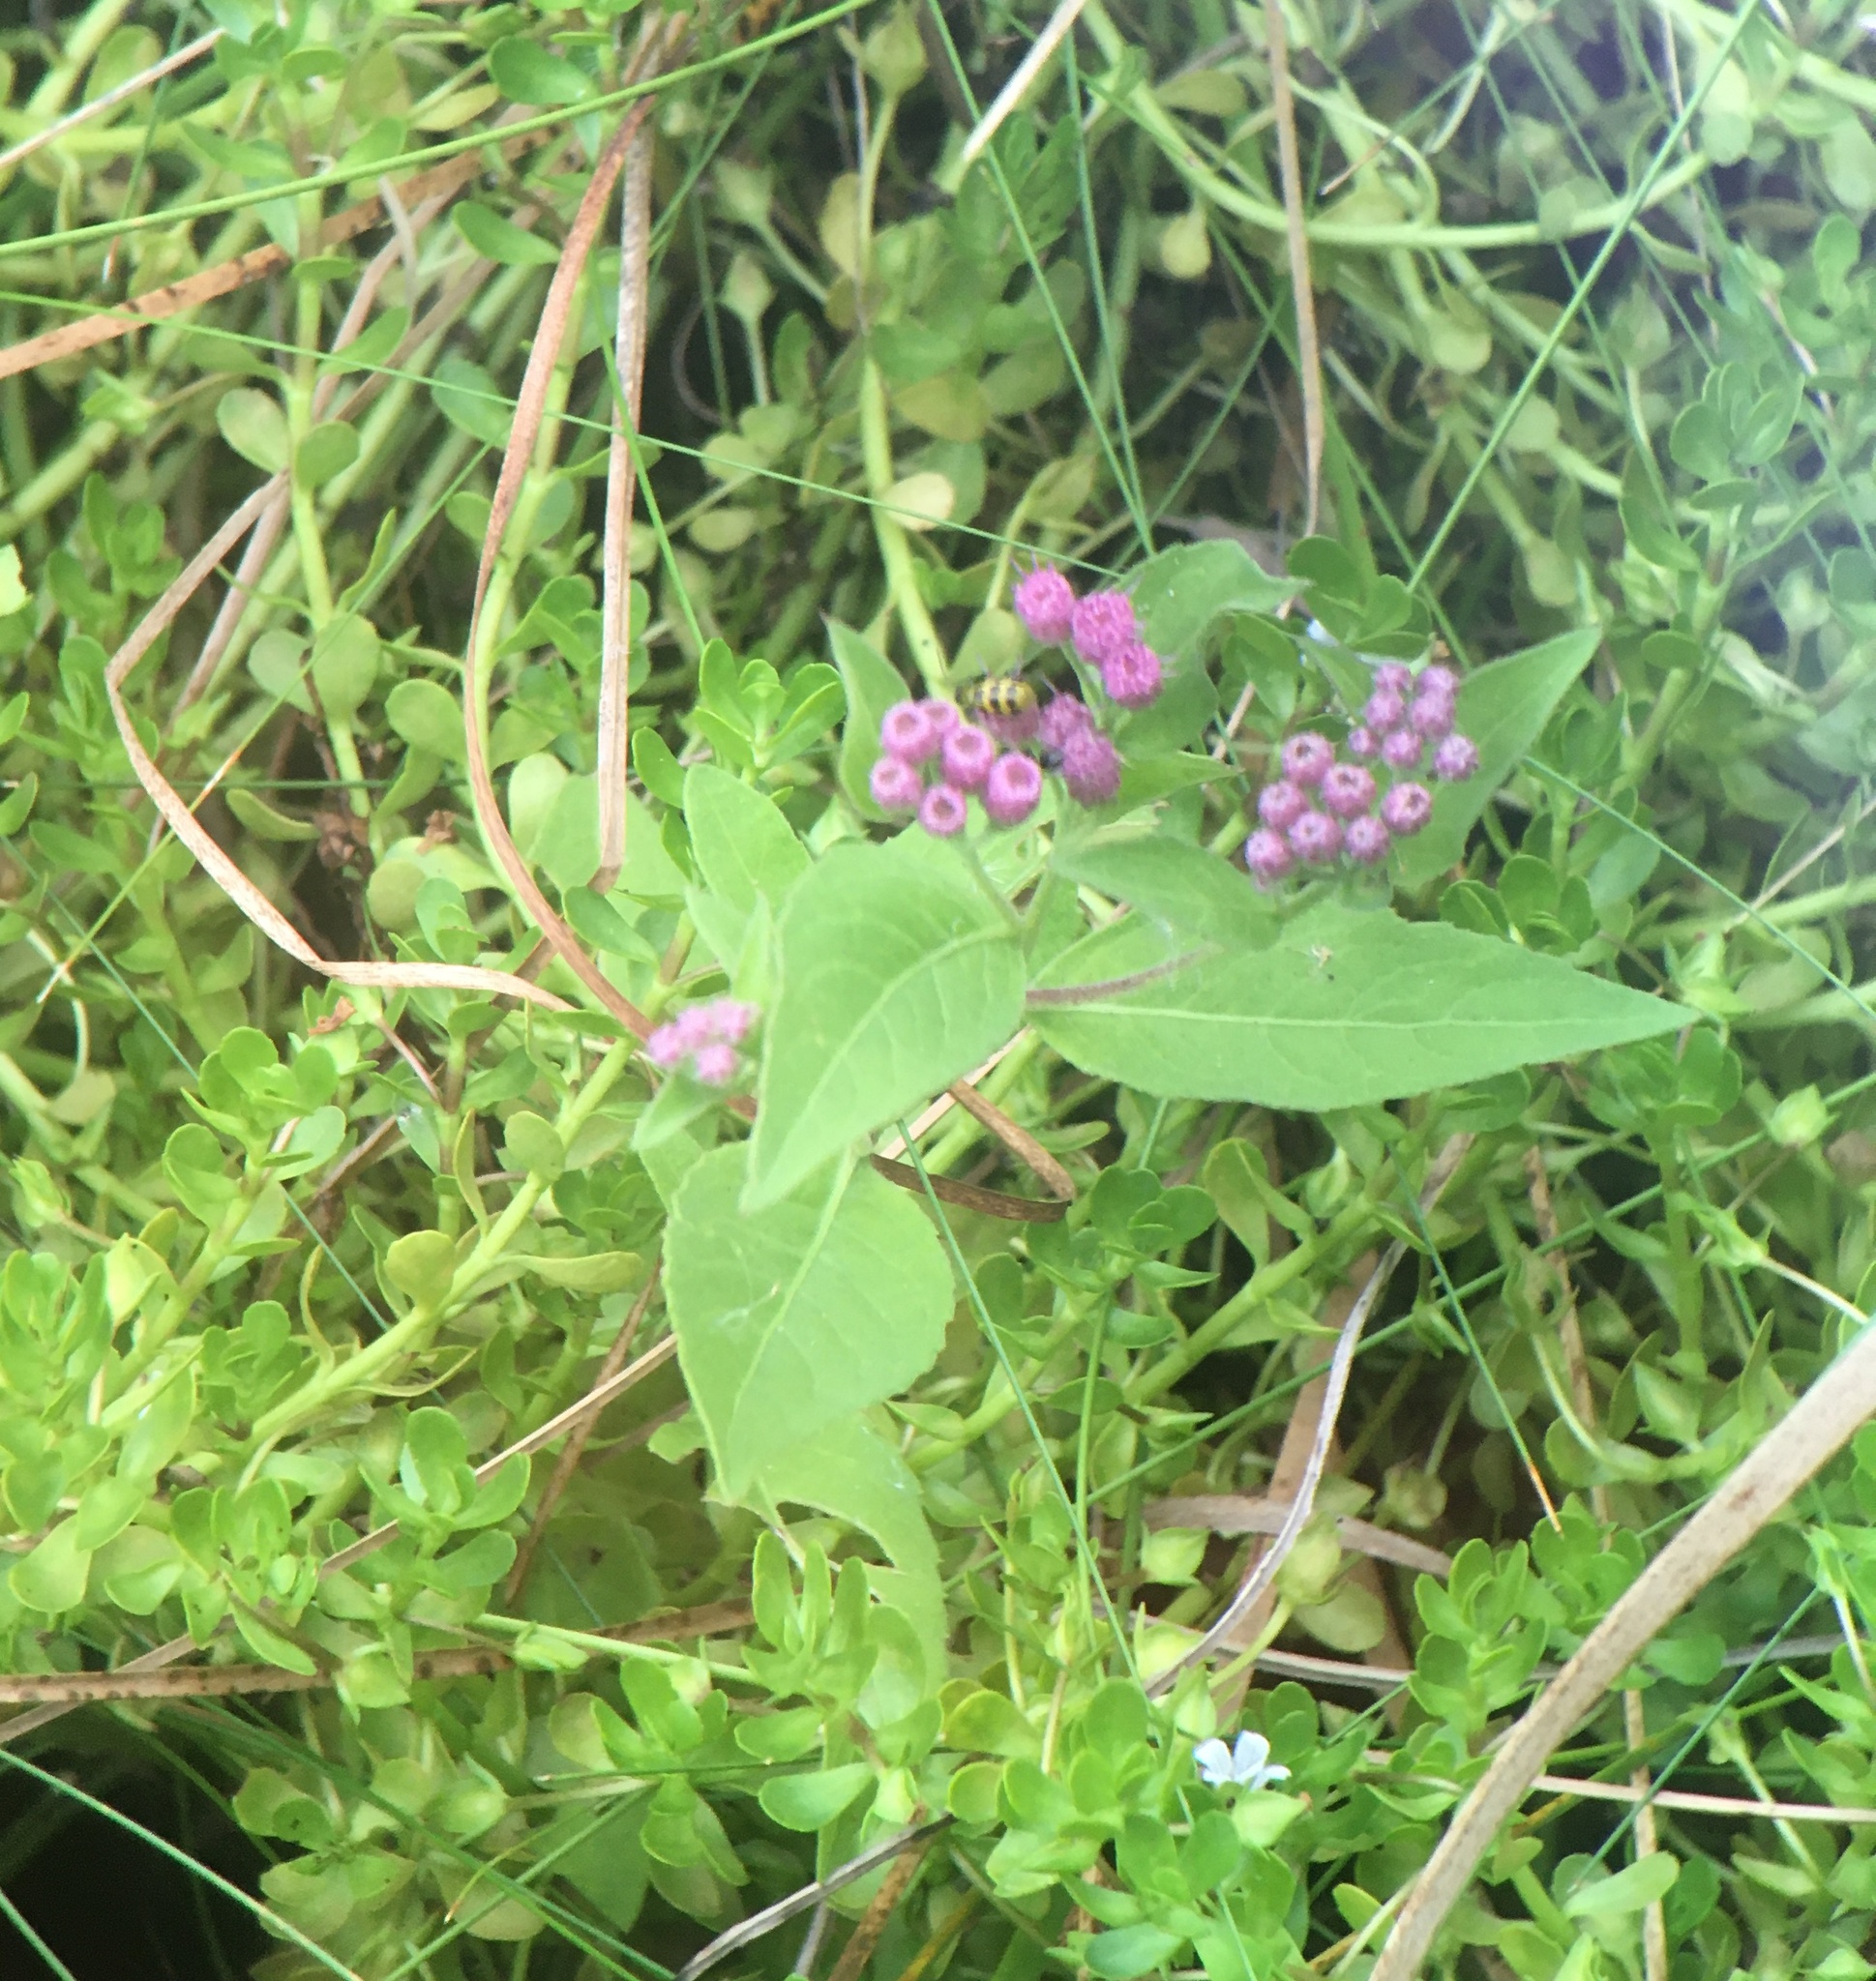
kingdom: Plantae
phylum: Tracheophyta
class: Magnoliopsida
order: Asterales
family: Asteraceae
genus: Pluchea
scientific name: Pluchea odorata
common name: Saltmarsh fleabane
